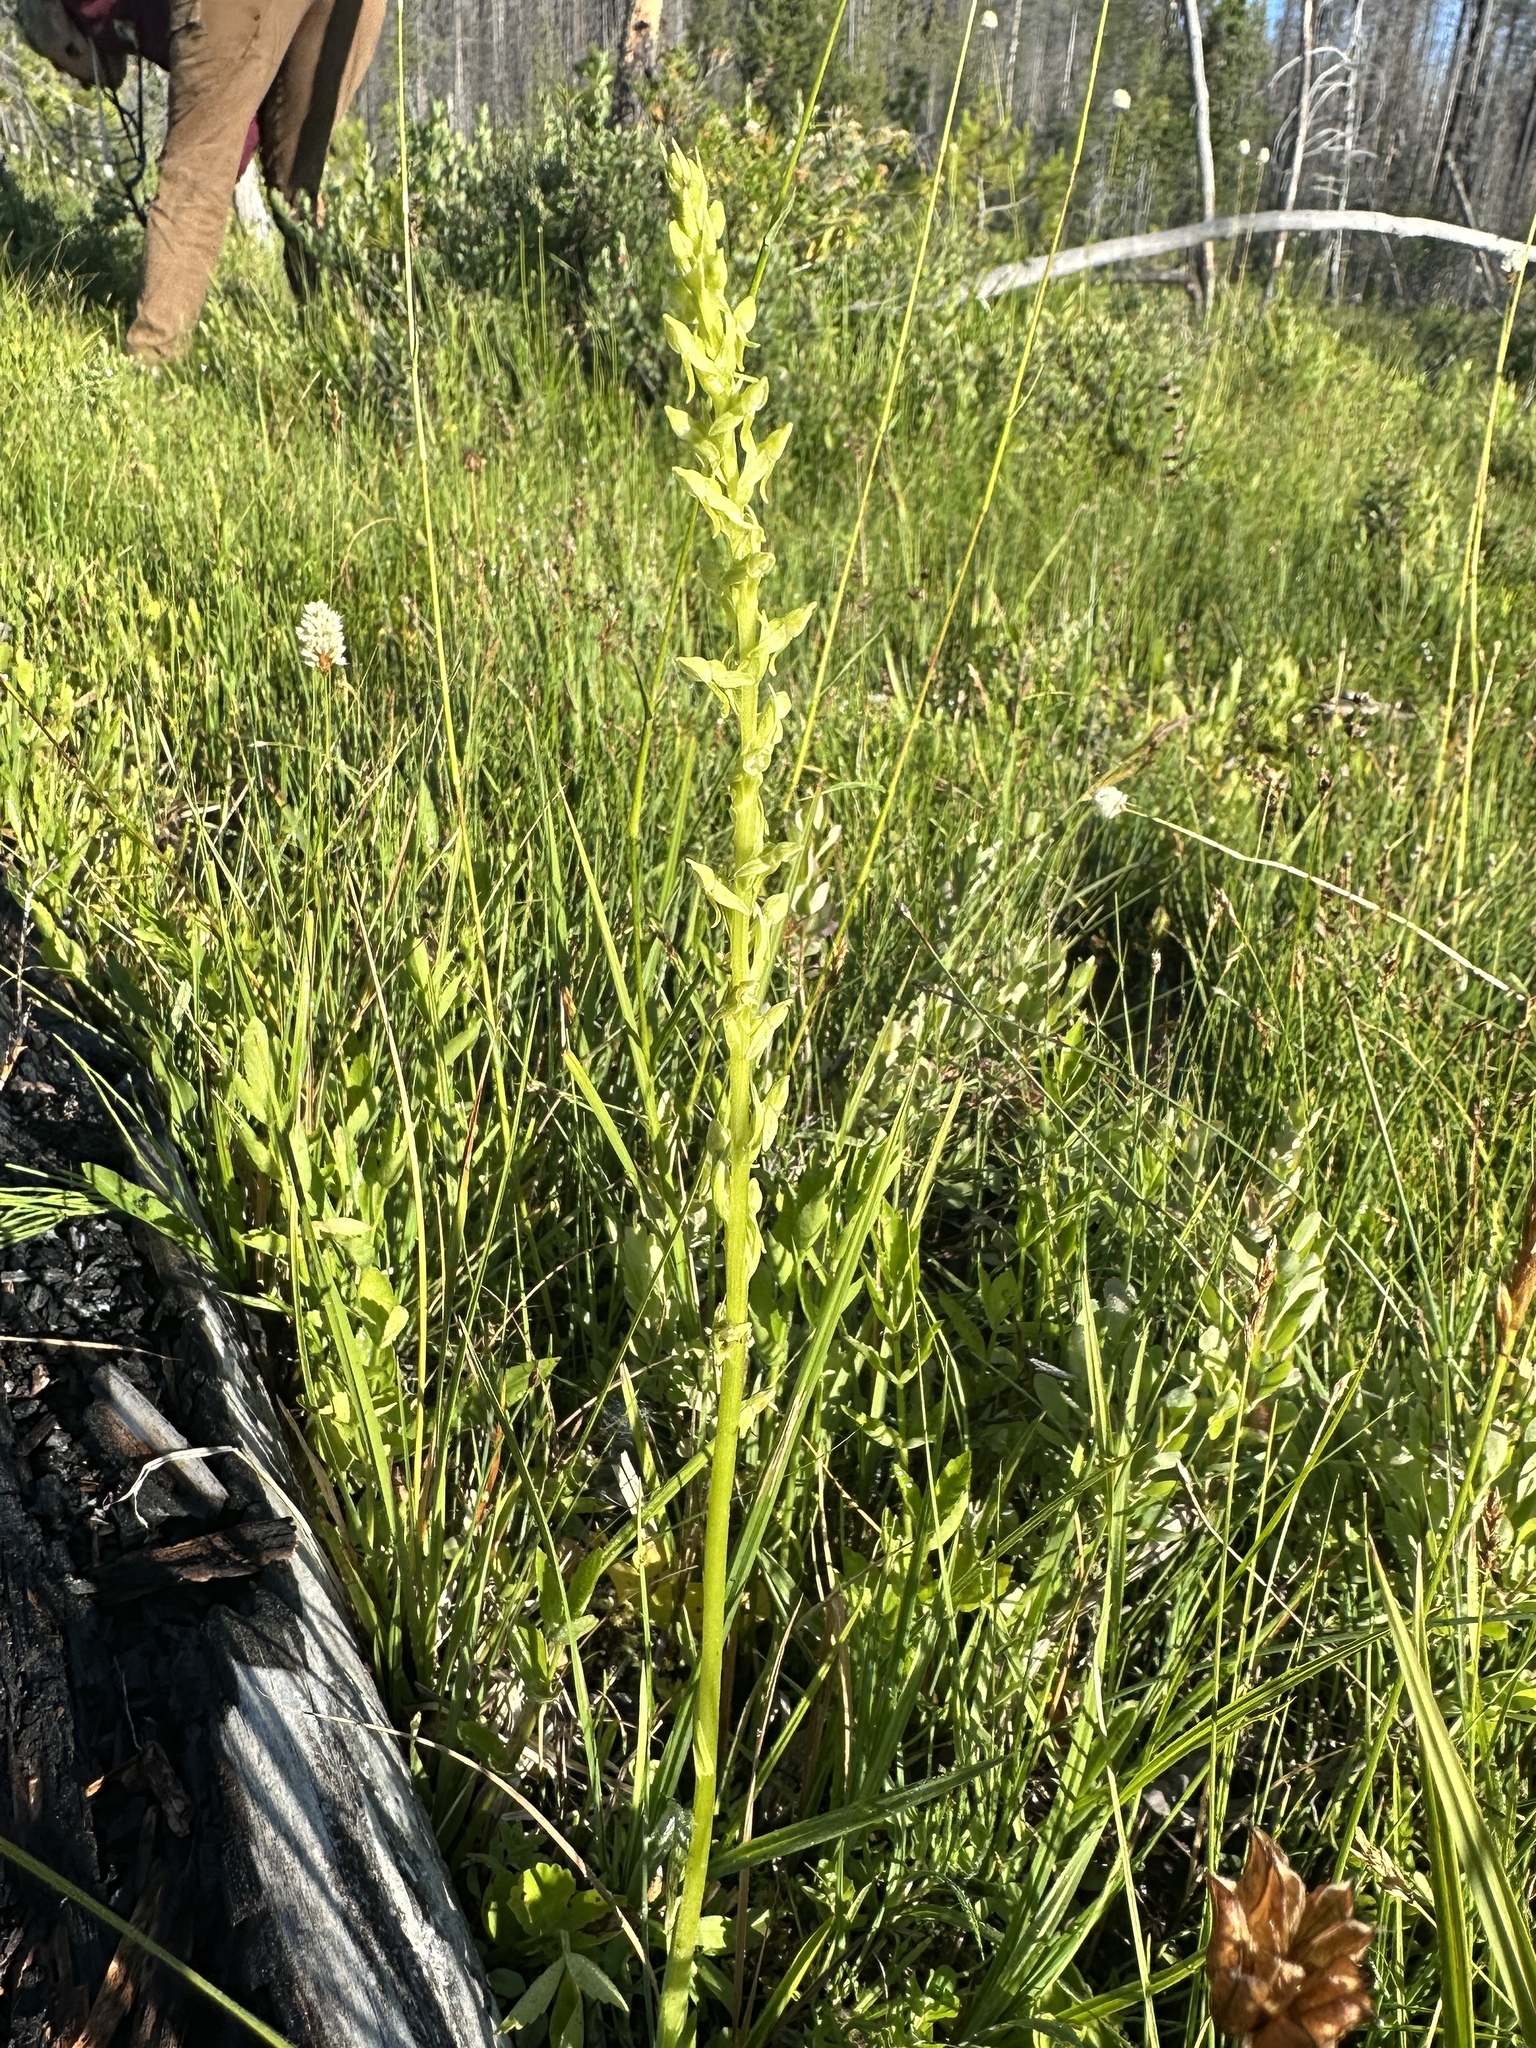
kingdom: Plantae
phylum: Tracheophyta
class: Liliopsida
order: Asparagales
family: Orchidaceae
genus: Platanthera
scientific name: Platanthera sparsiflora
